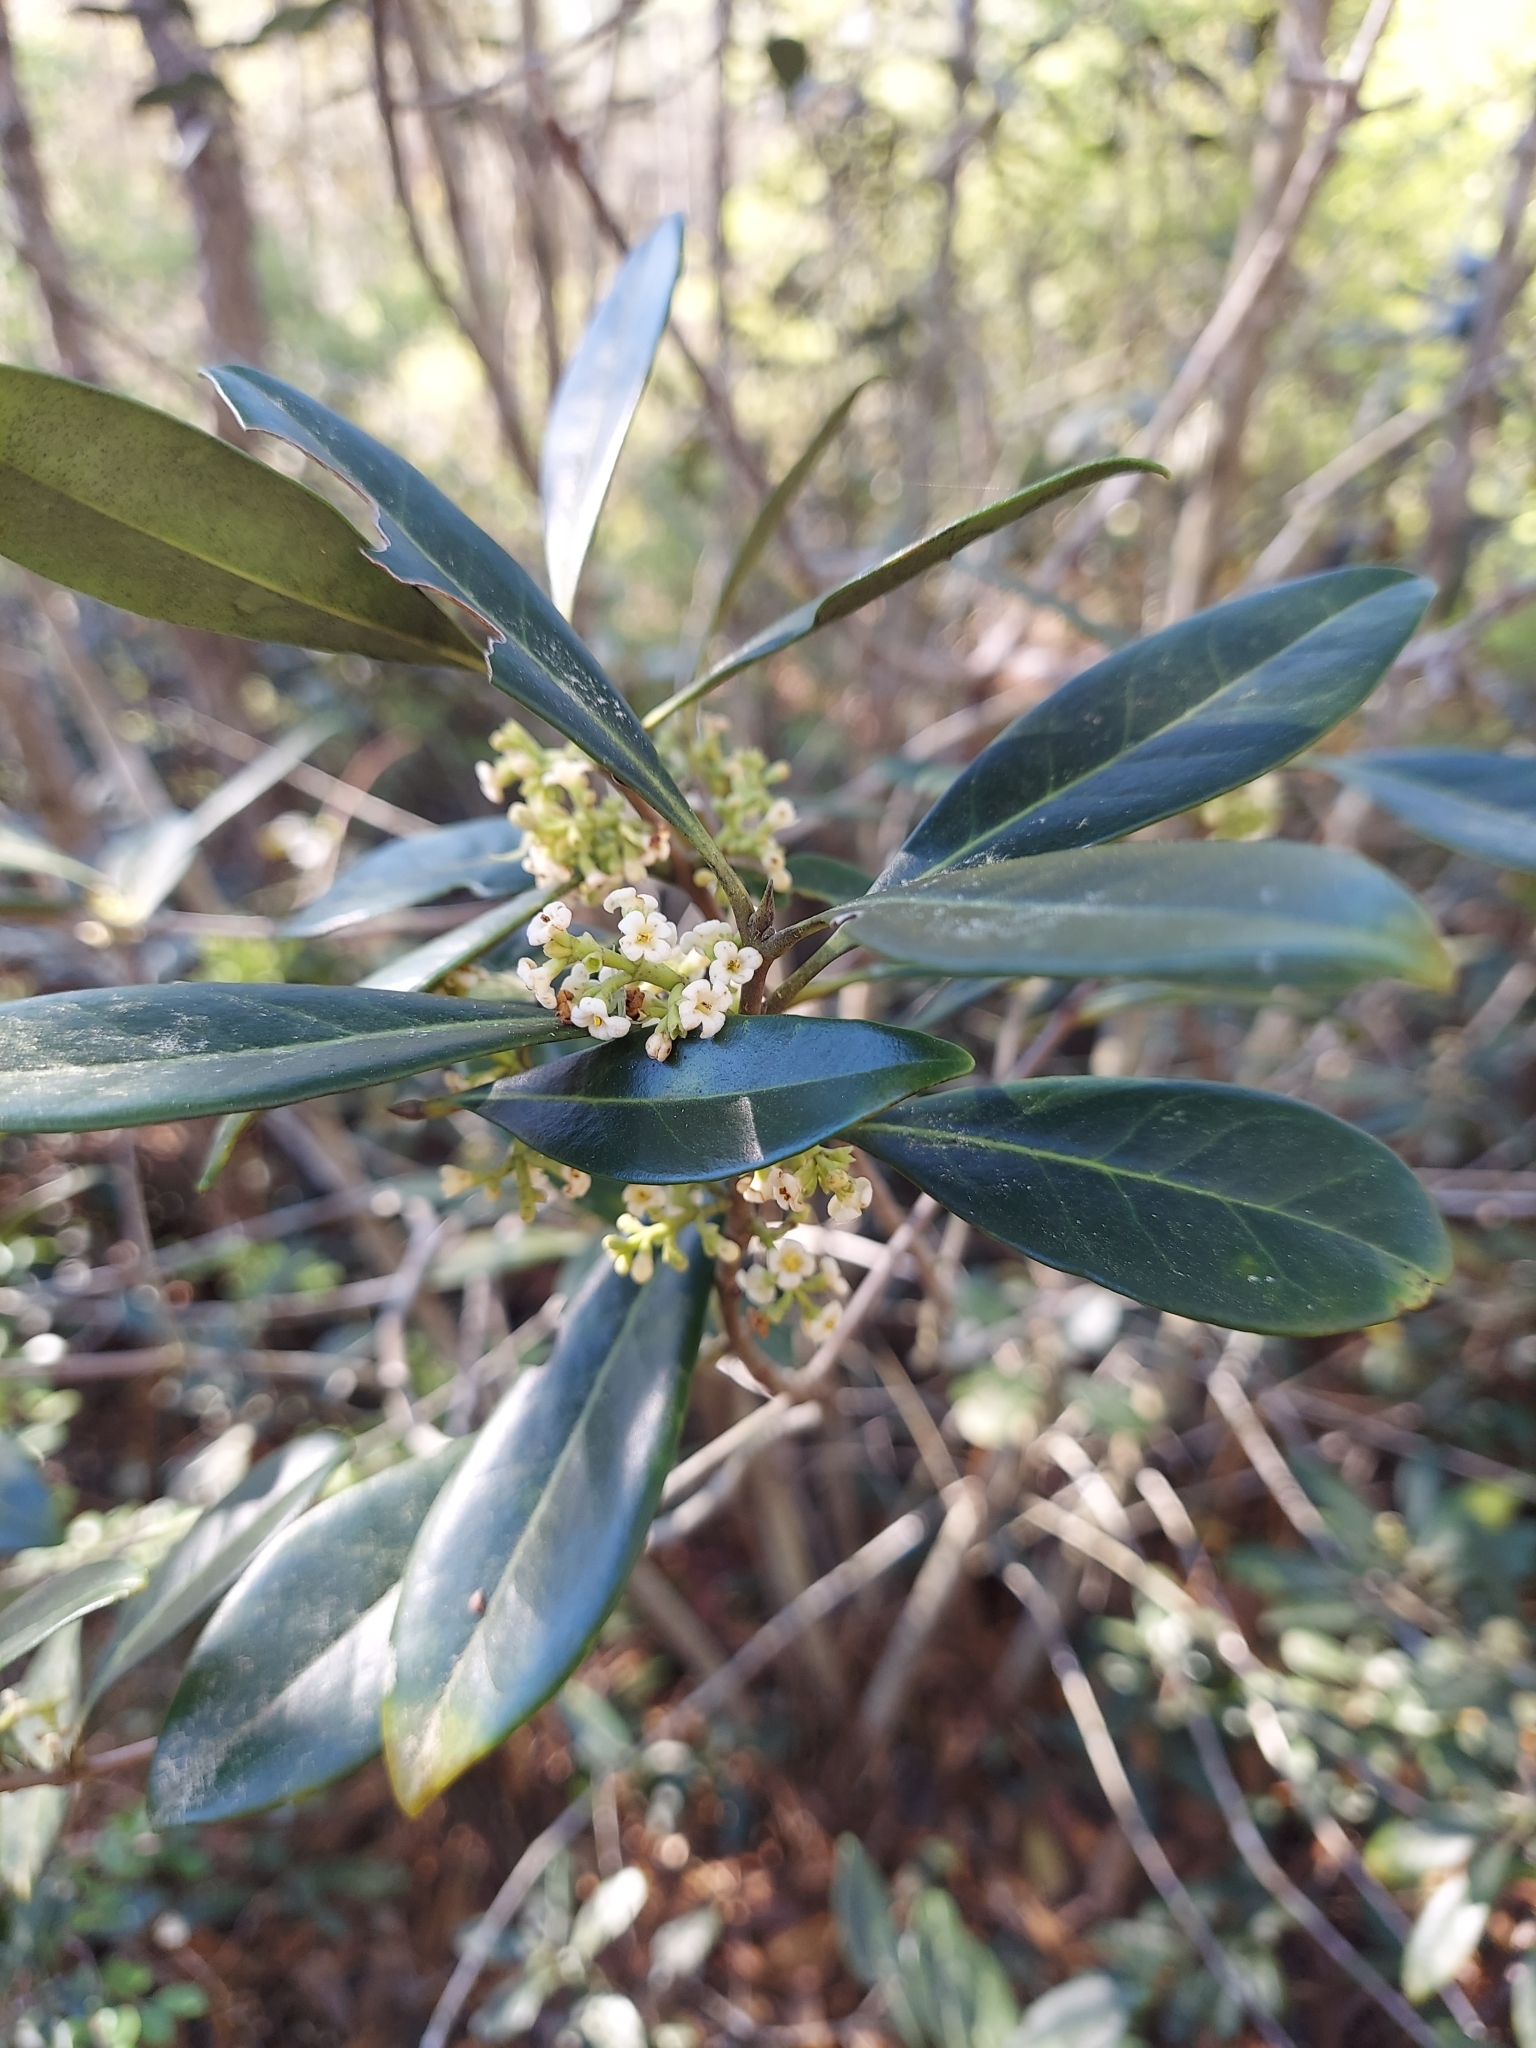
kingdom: Plantae
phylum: Tracheophyta
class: Magnoliopsida
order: Lamiales
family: Oleaceae
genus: Cartrema
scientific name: Cartrema americana
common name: Devilwood
